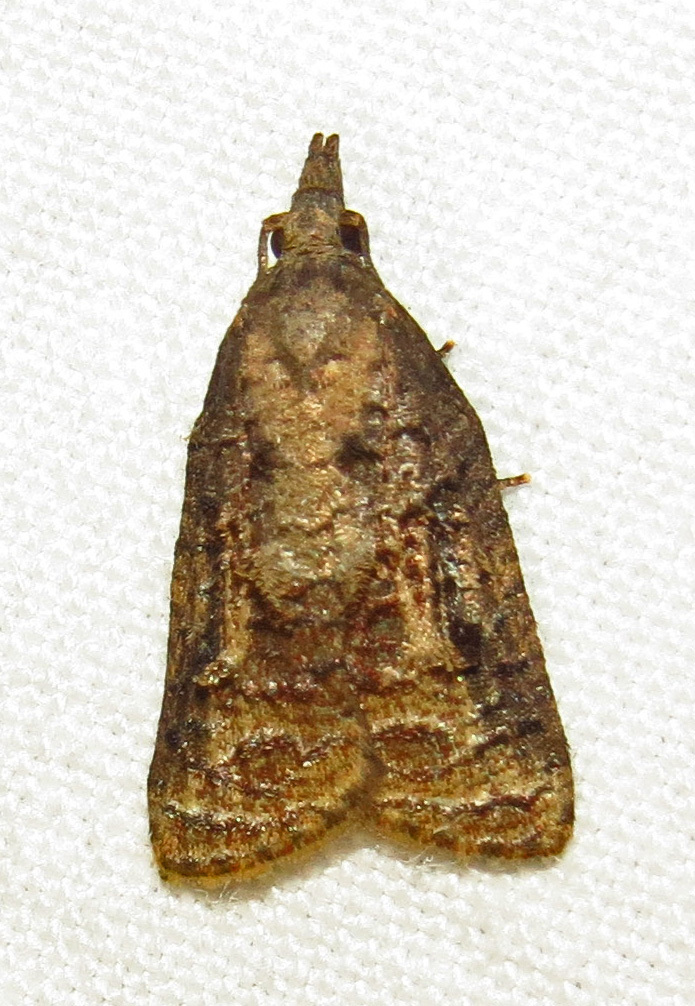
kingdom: Animalia
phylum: Arthropoda
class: Insecta
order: Lepidoptera
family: Tortricidae
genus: Platynota
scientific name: Platynota idaeusalis
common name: Tufted apple bud moth
